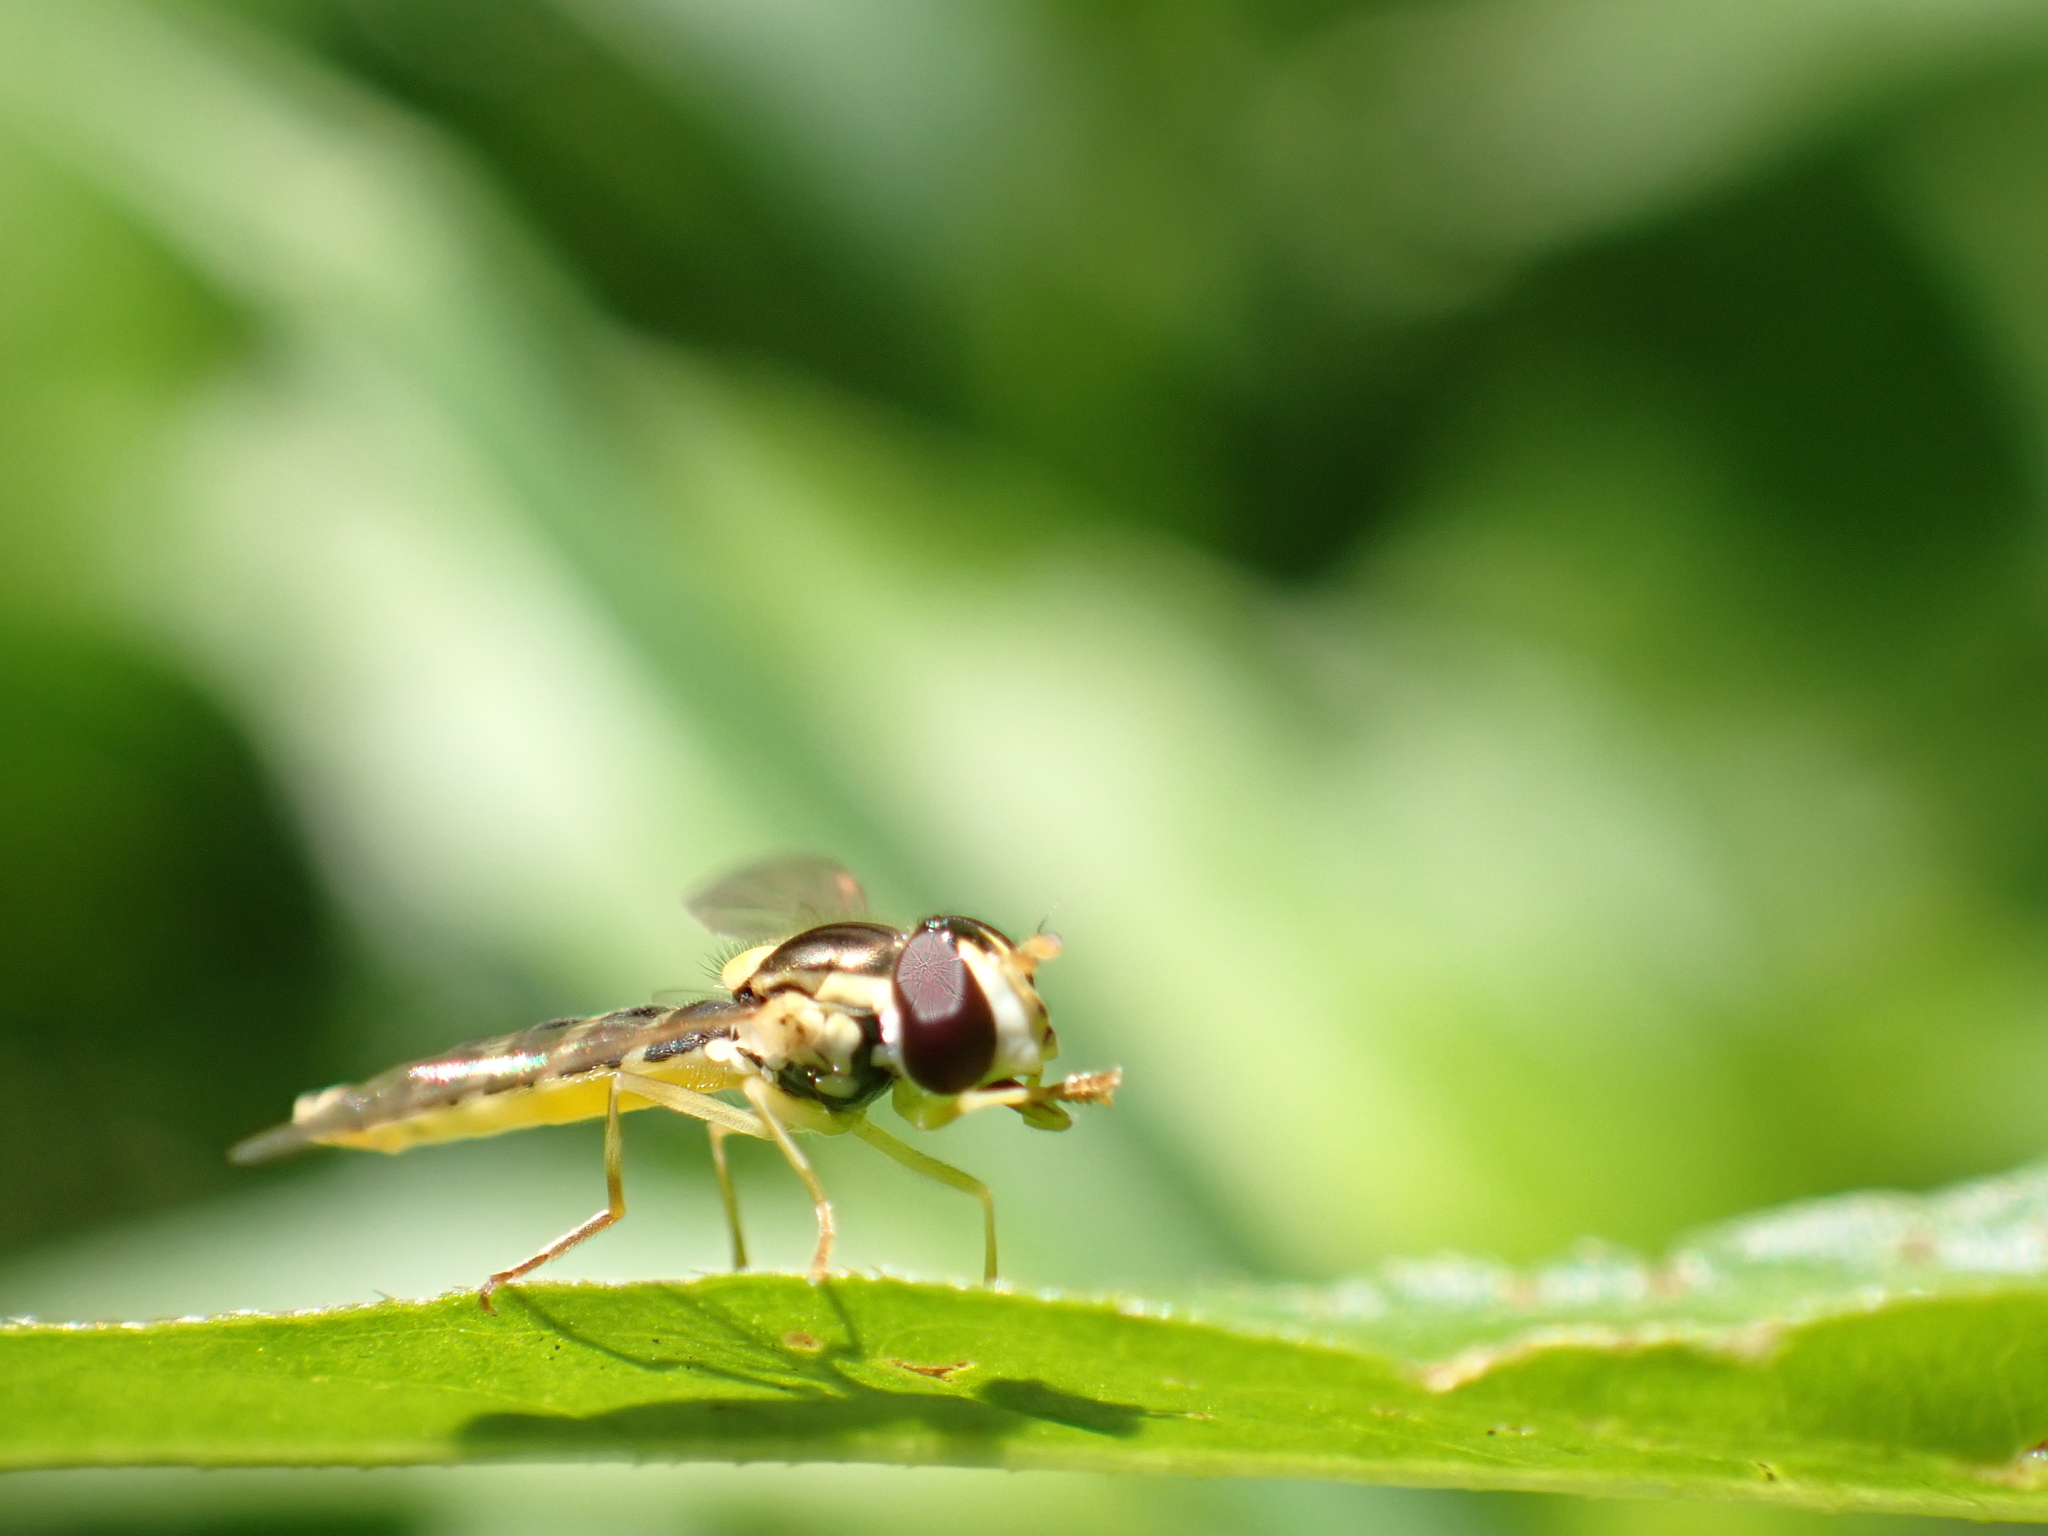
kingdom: Animalia
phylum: Arthropoda
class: Insecta
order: Diptera
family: Syrphidae
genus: Sphaerophoria
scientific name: Sphaerophoria
